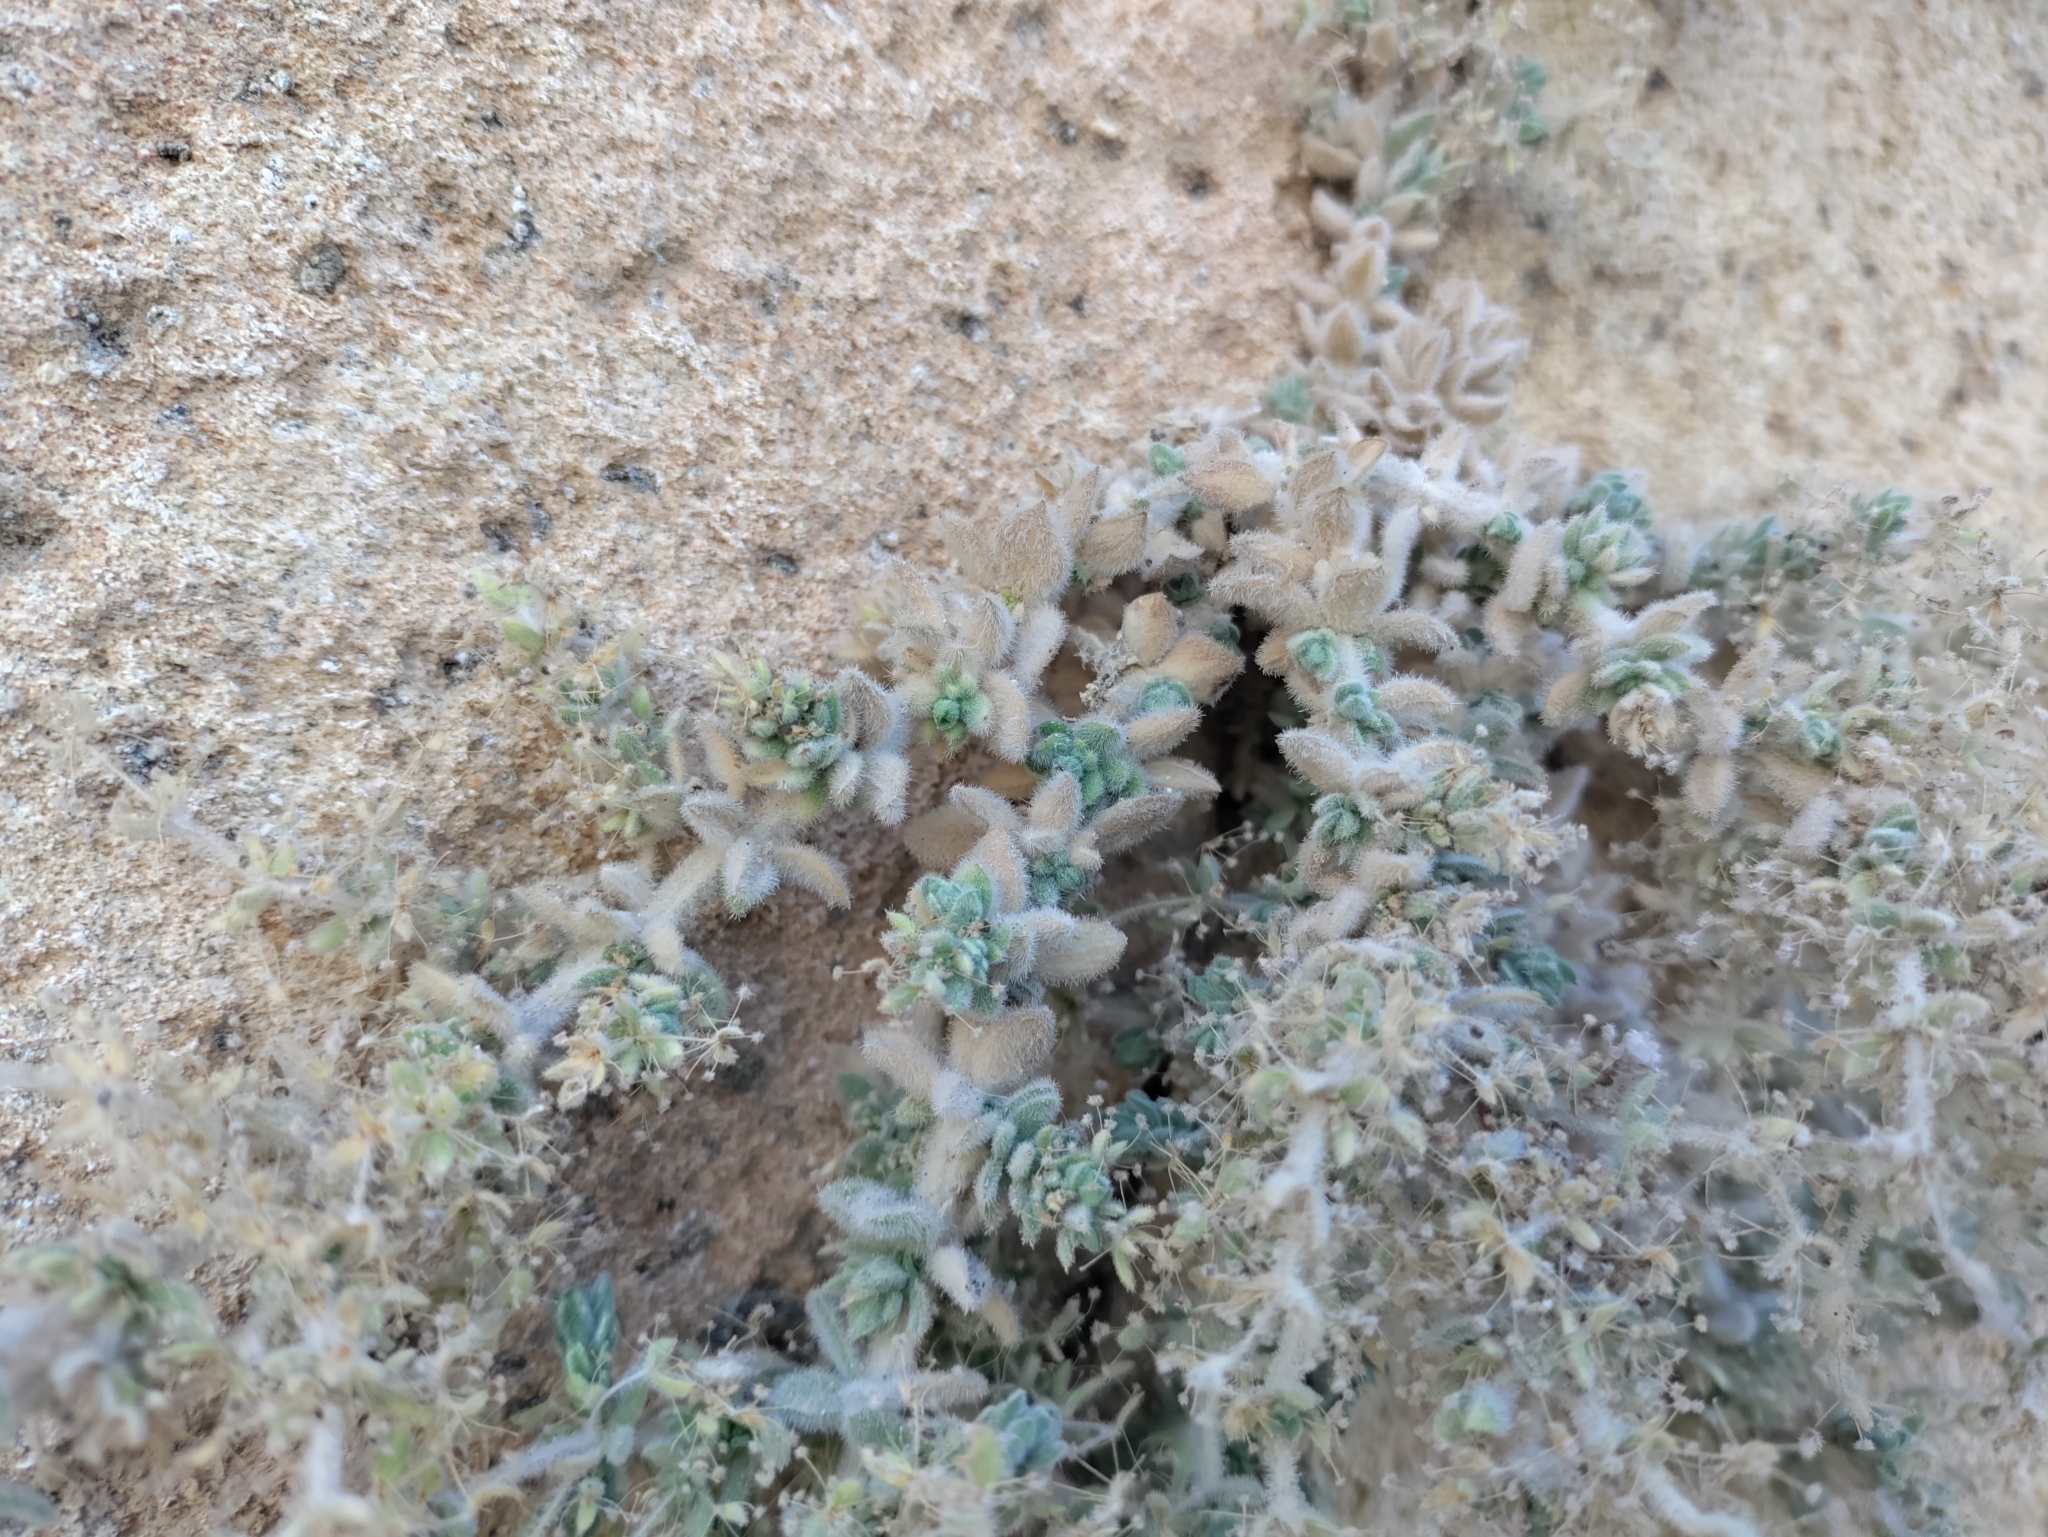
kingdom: Plantae
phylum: Tracheophyta
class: Magnoliopsida
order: Gentianales
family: Rubiaceae
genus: Galium
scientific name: Galium canum
